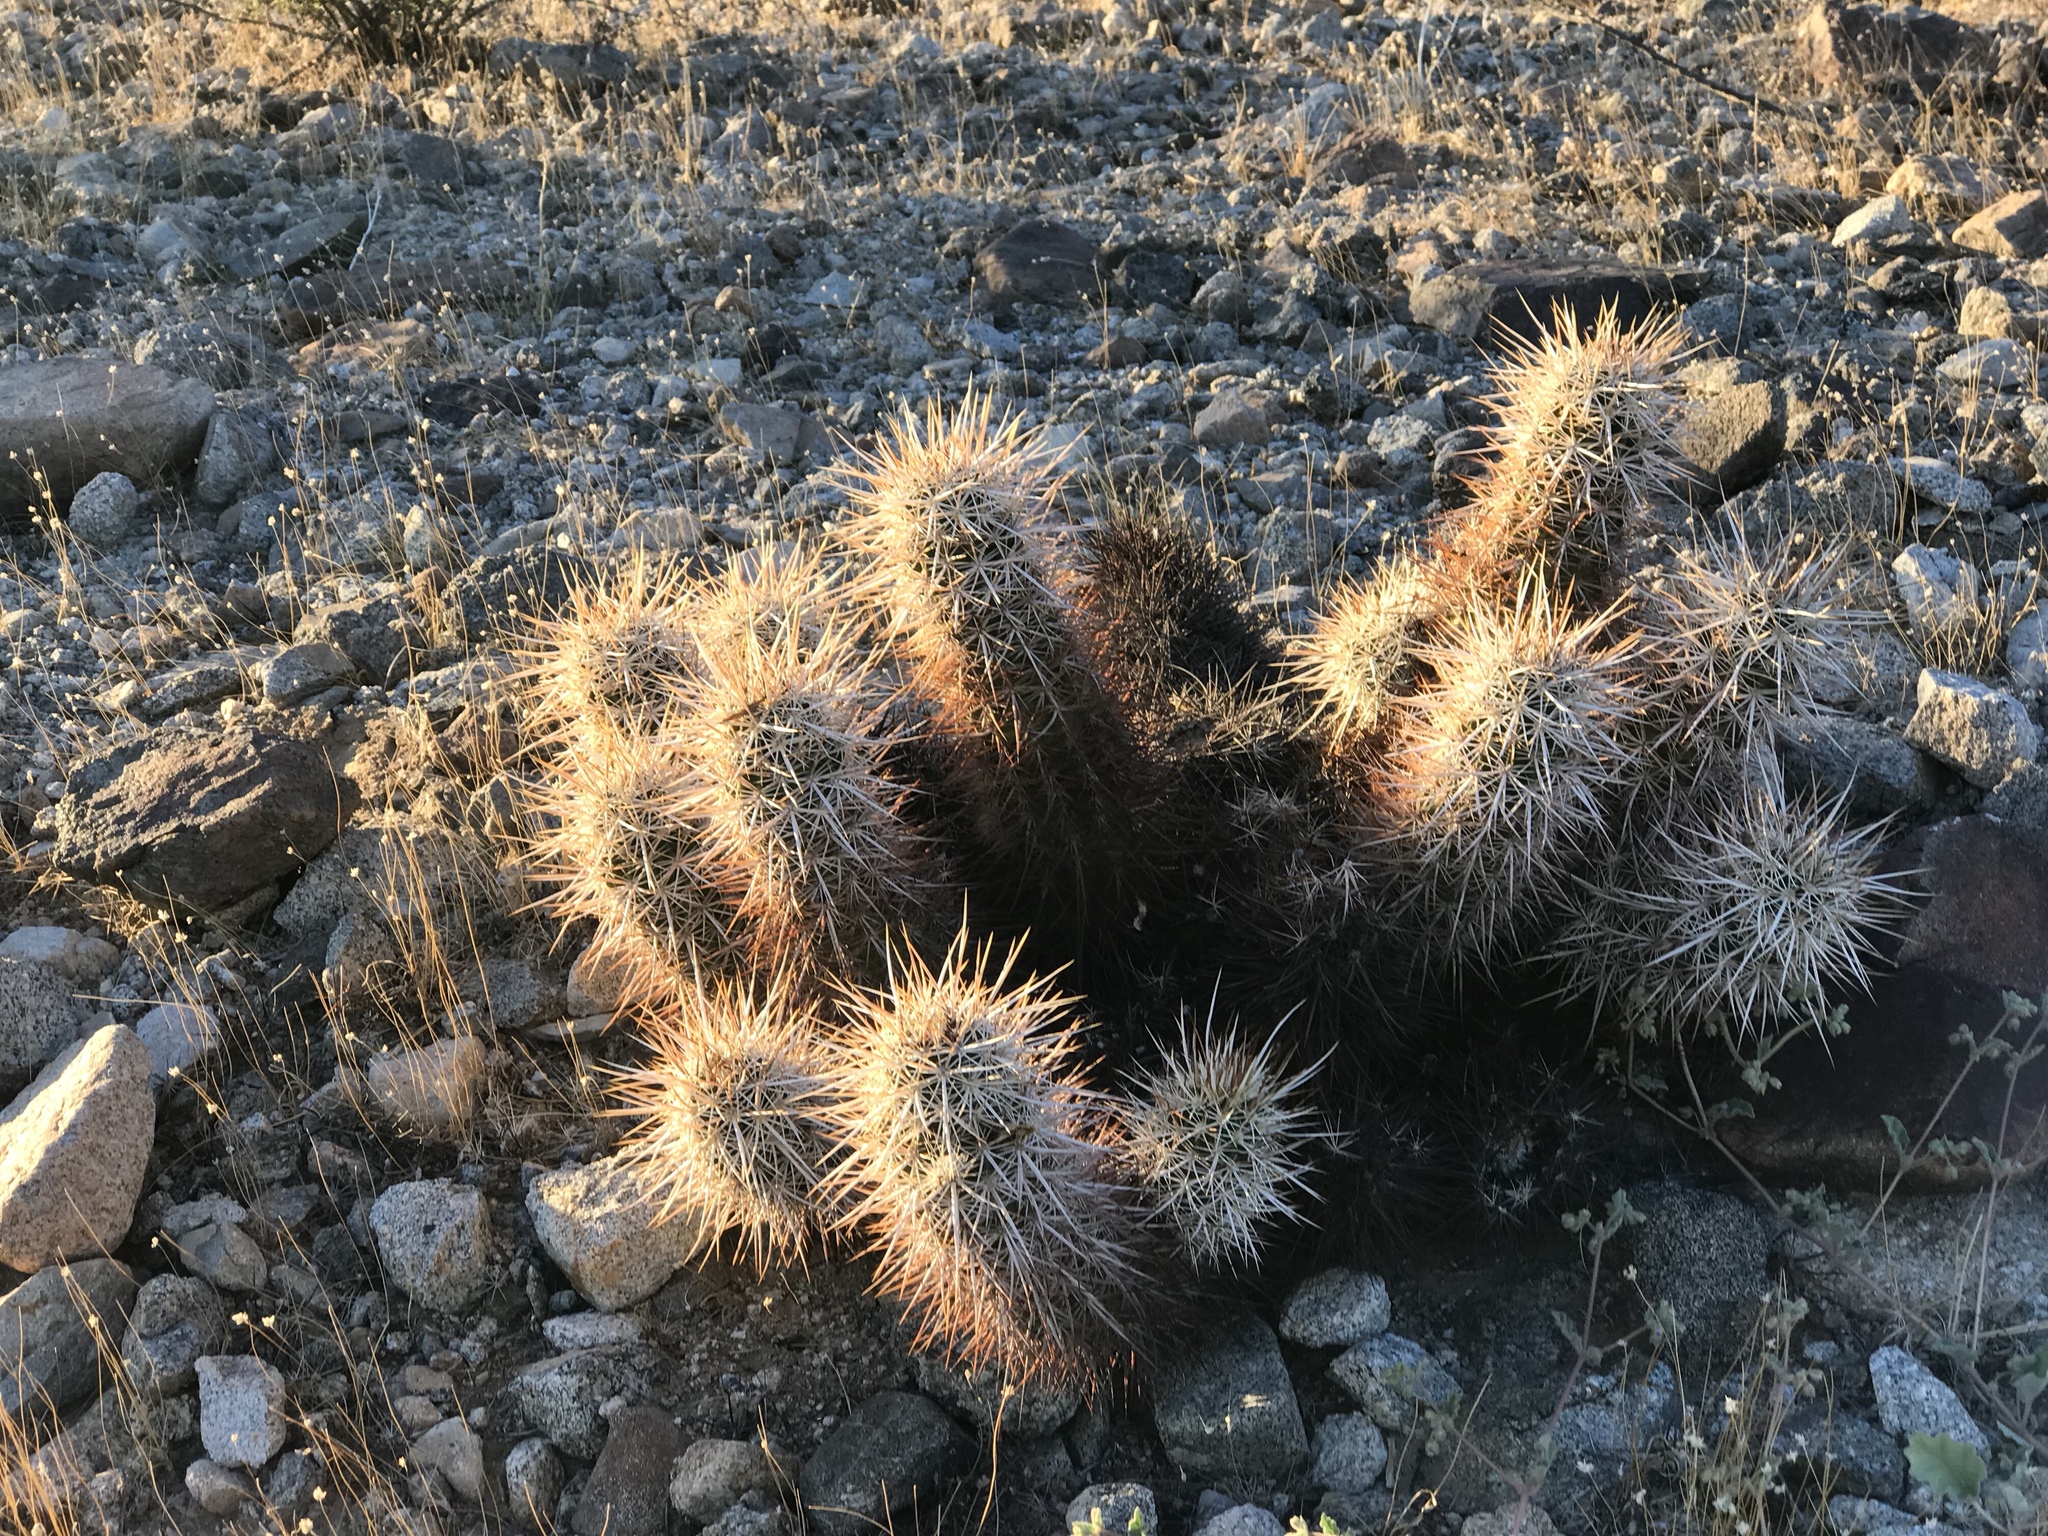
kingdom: Plantae
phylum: Tracheophyta
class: Magnoliopsida
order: Caryophyllales
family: Cactaceae
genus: Echinocereus
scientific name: Echinocereus engelmannii
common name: Engelmann's hedgehog cactus
